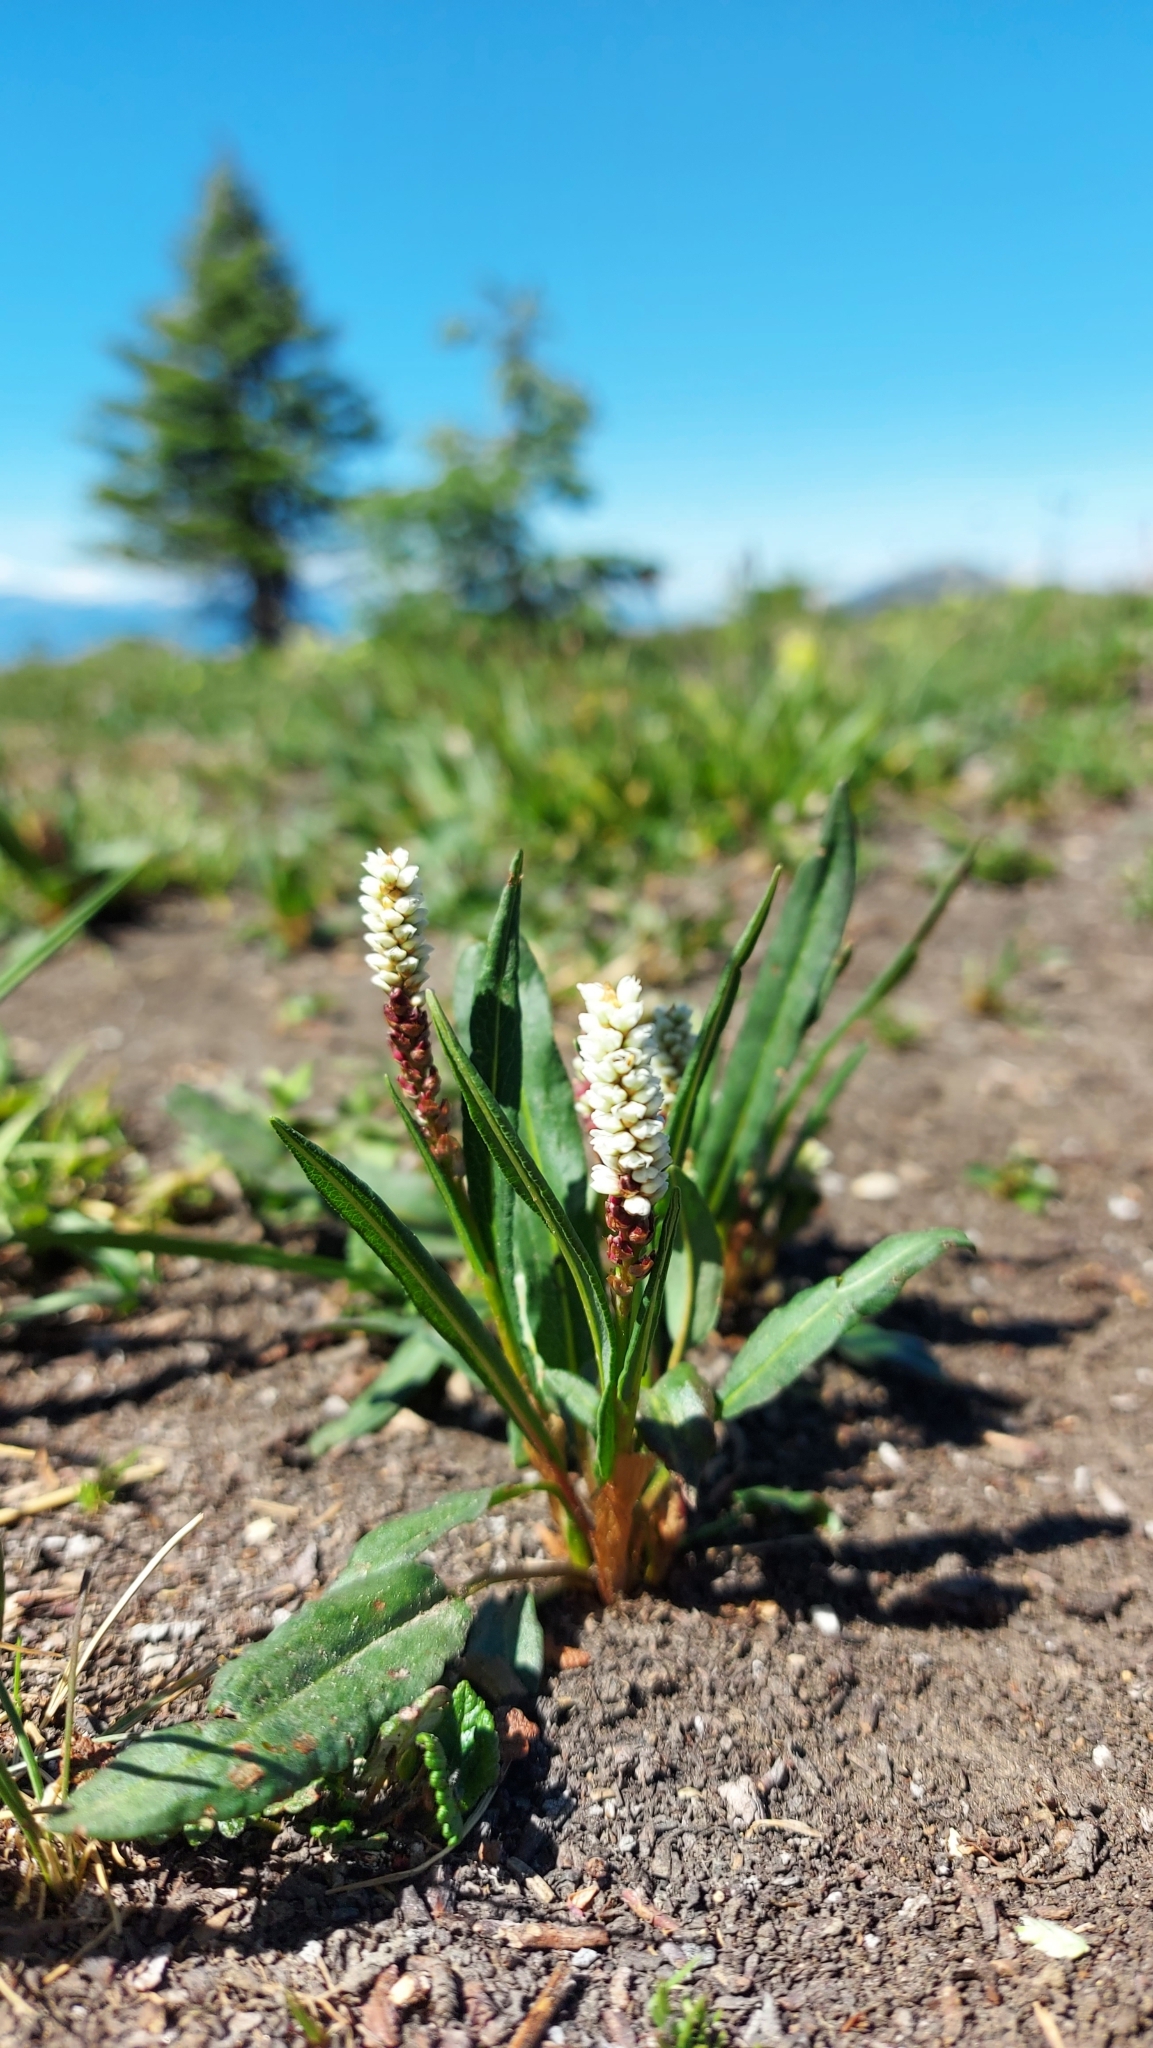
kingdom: Plantae
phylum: Tracheophyta
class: Magnoliopsida
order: Caryophyllales
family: Polygonaceae
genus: Bistorta
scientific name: Bistorta vivipara
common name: Alpine bistort
